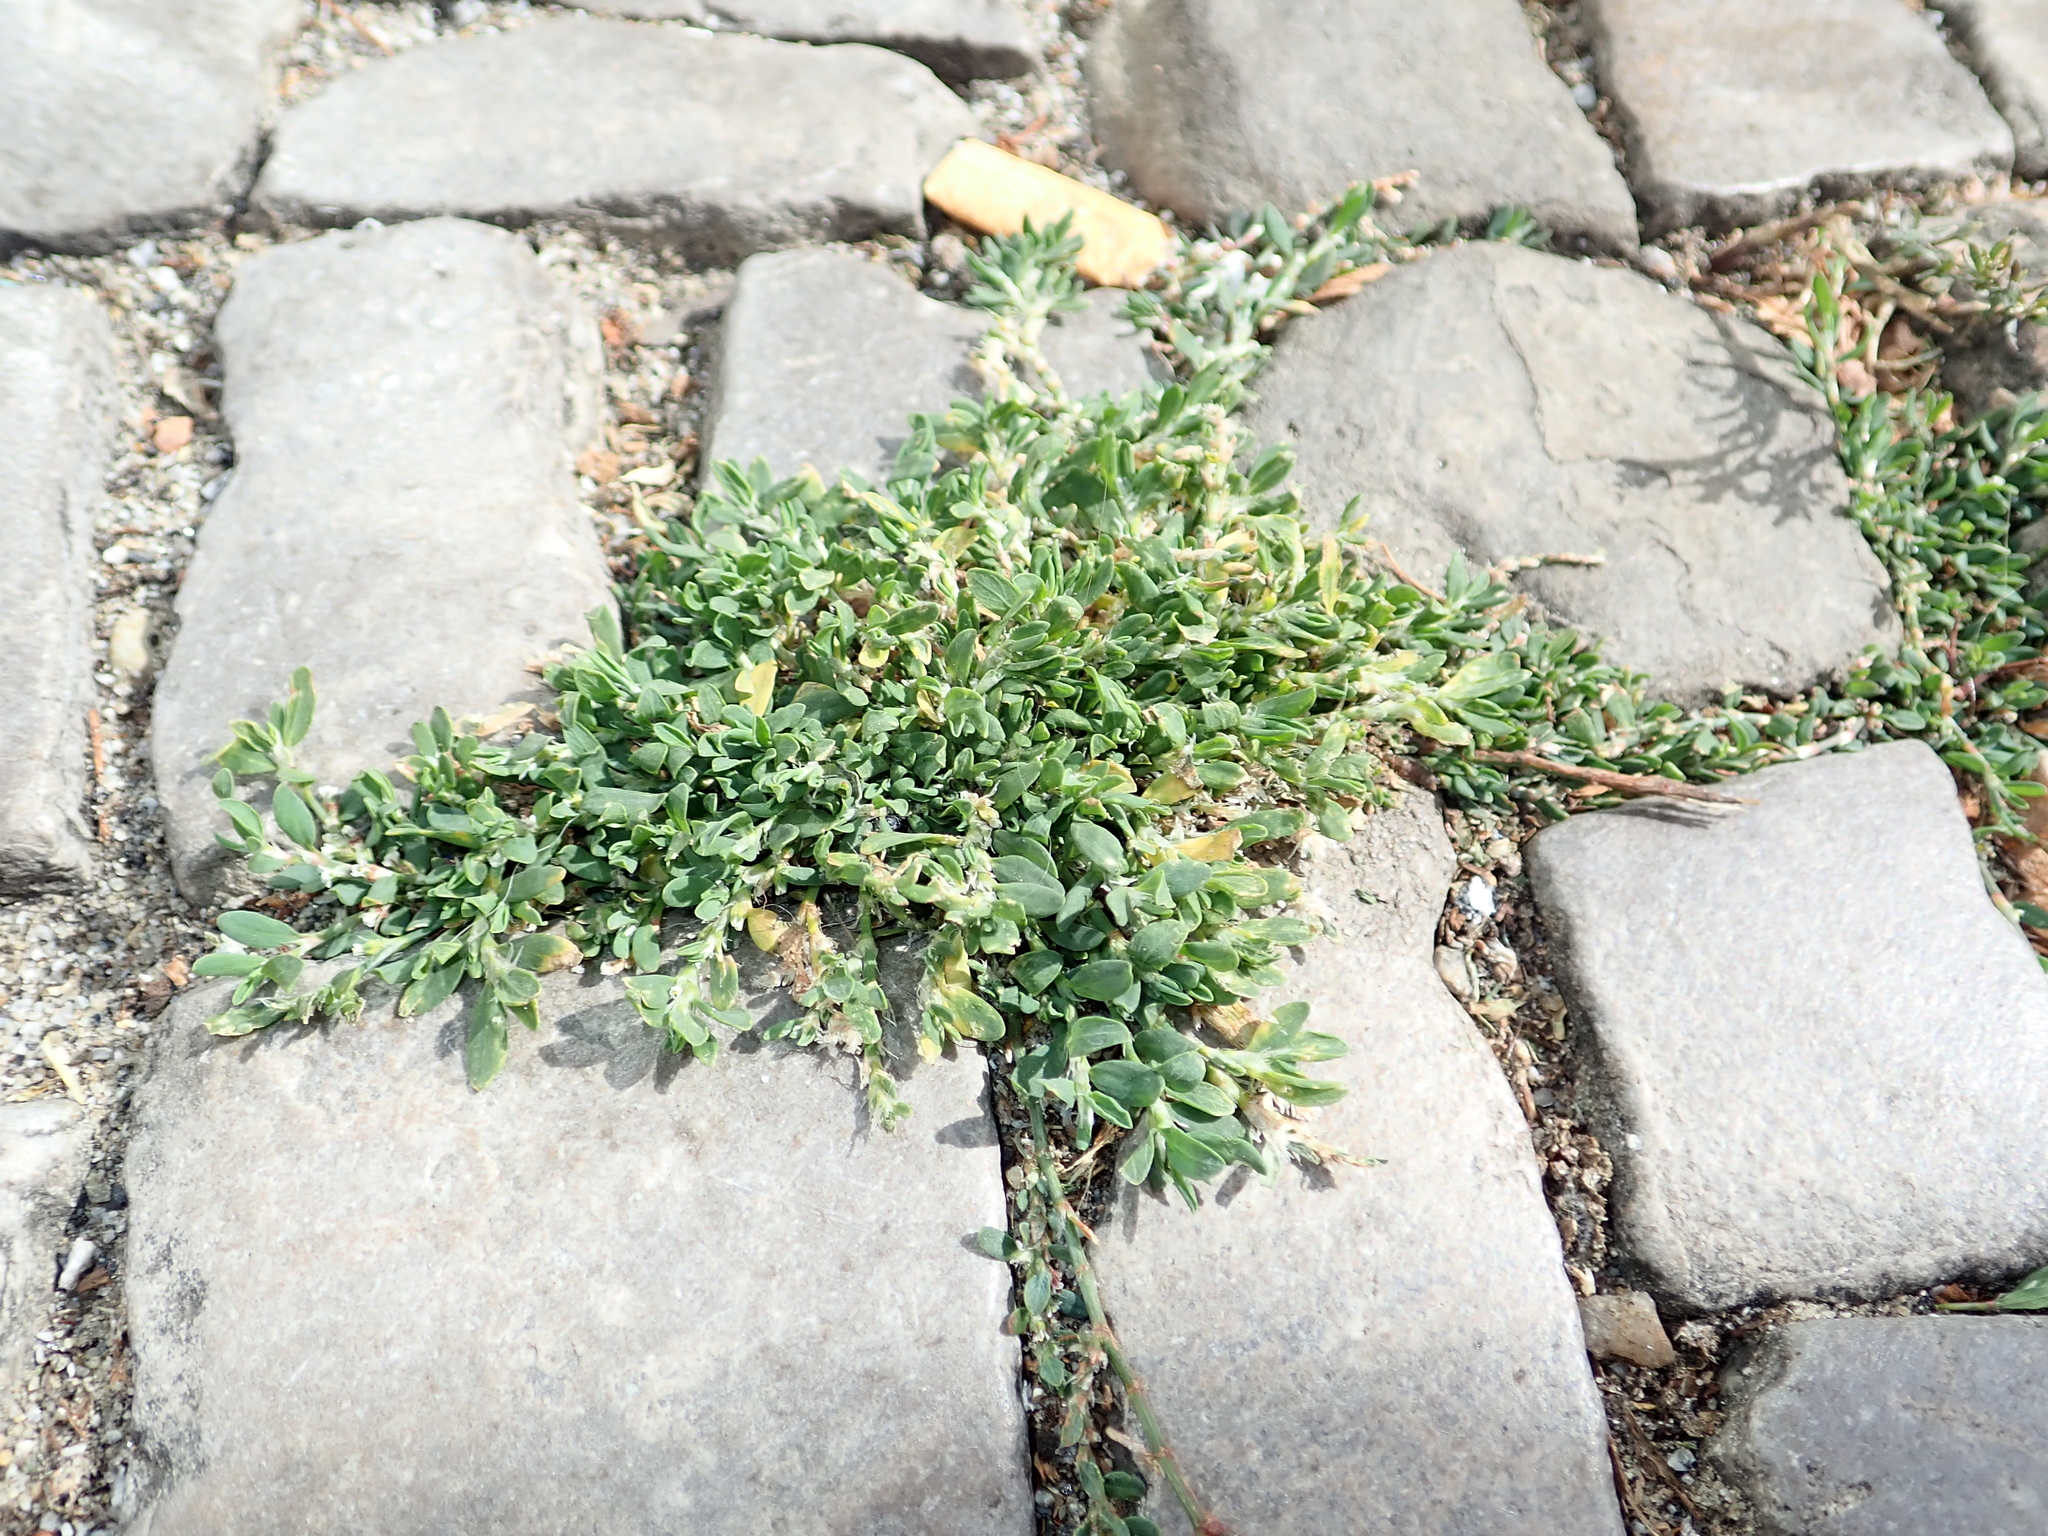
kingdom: Plantae
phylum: Tracheophyta
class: Magnoliopsida
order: Caryophyllales
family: Polygonaceae
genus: Polygonum
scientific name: Polygonum aviculare
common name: Prostrate knotweed
